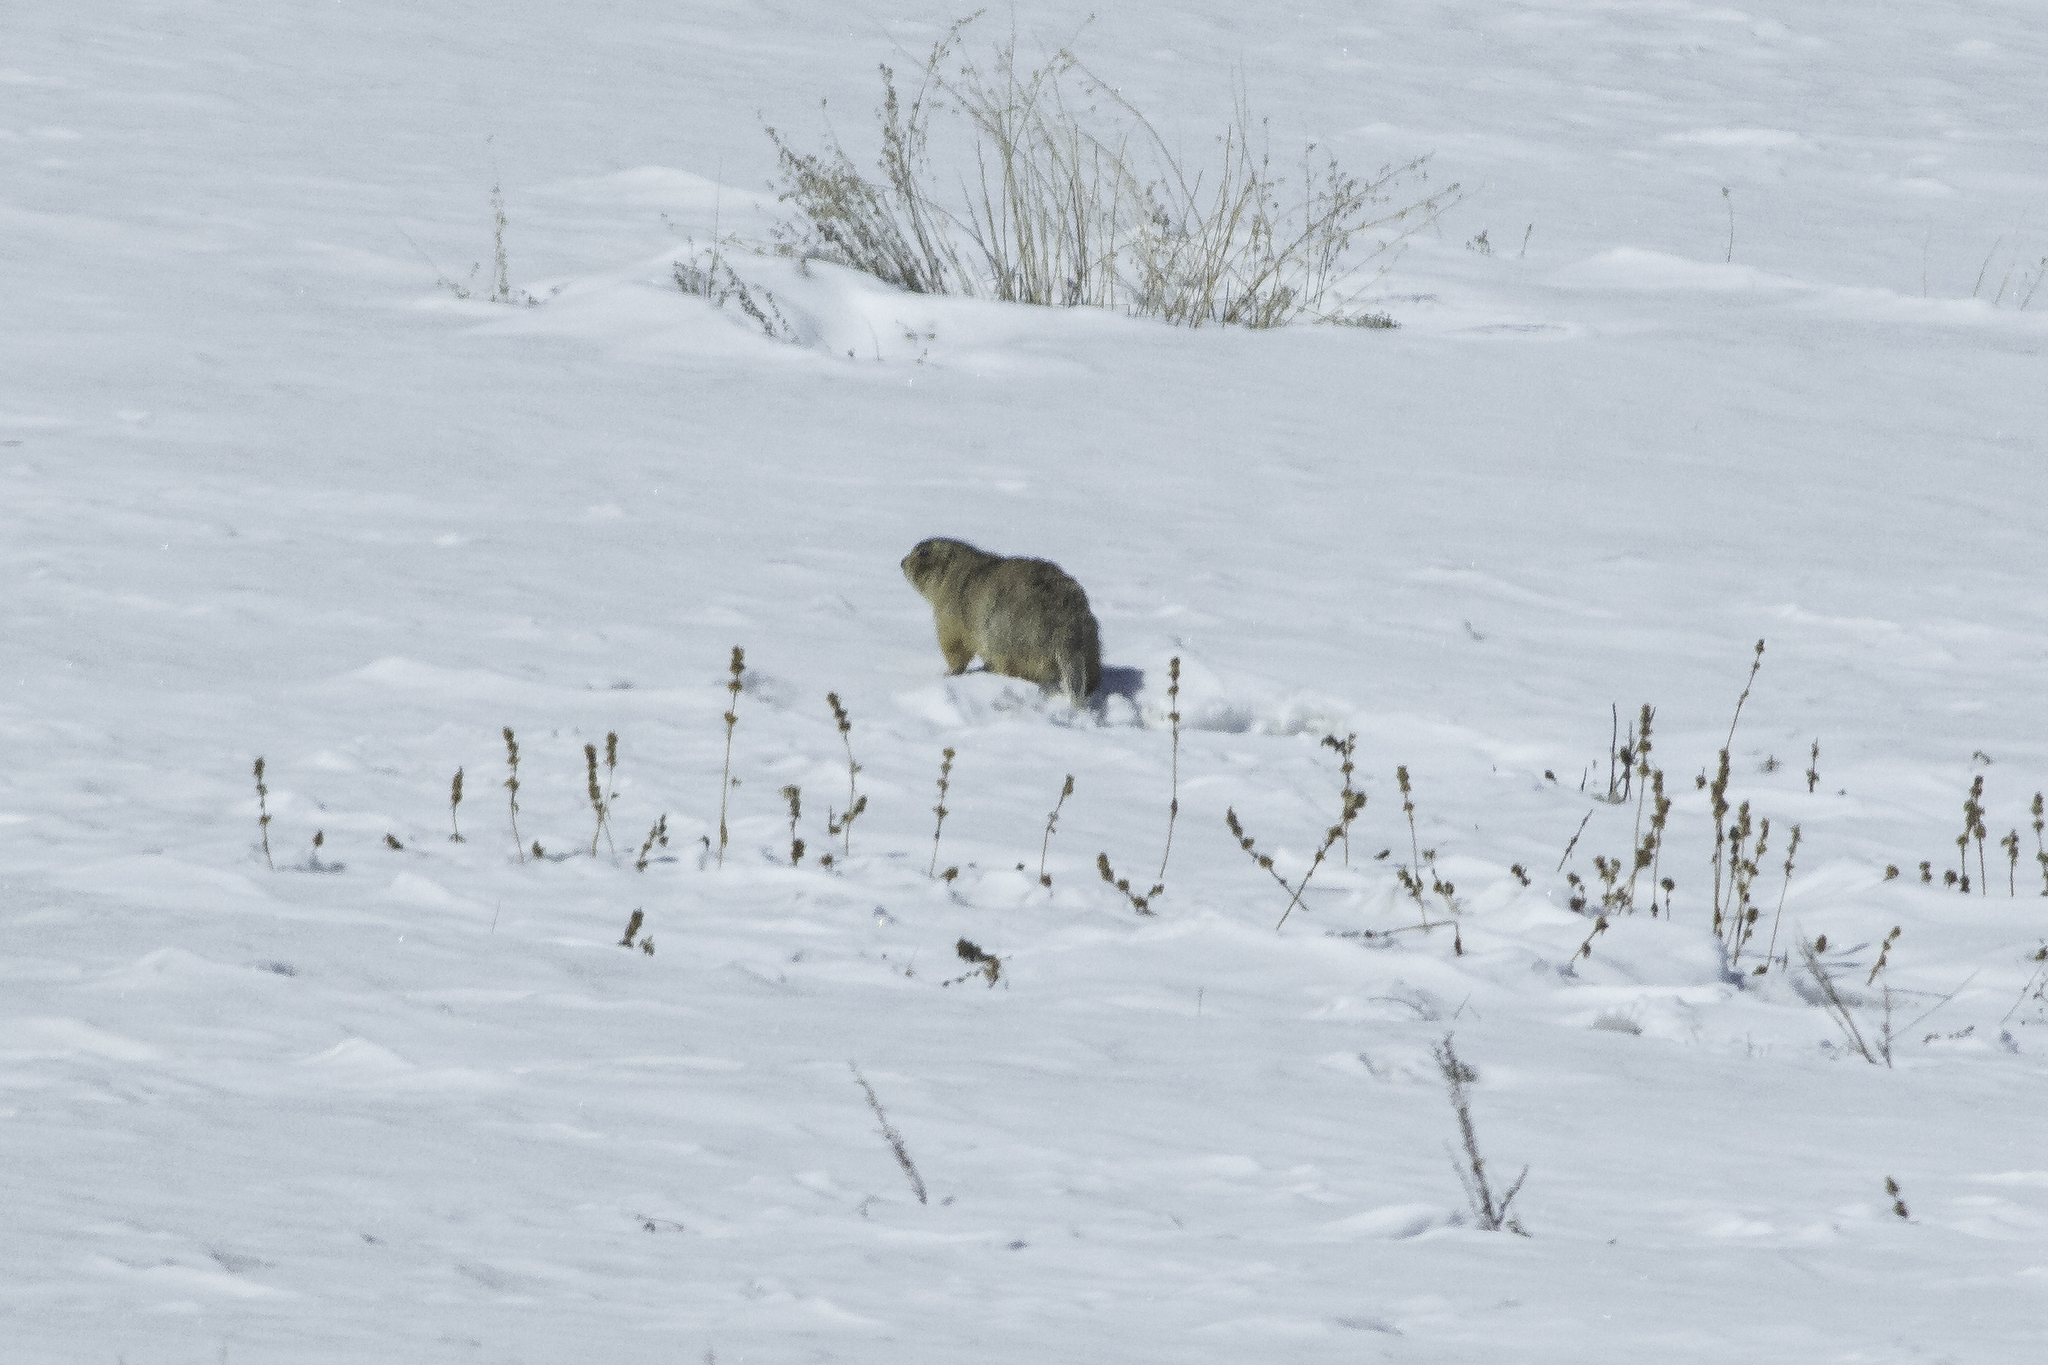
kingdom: Animalia
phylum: Chordata
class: Mammalia
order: Rodentia
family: Sciuridae
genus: Cynomys
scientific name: Cynomys gunnisoni
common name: Gunnison's prairie dog
